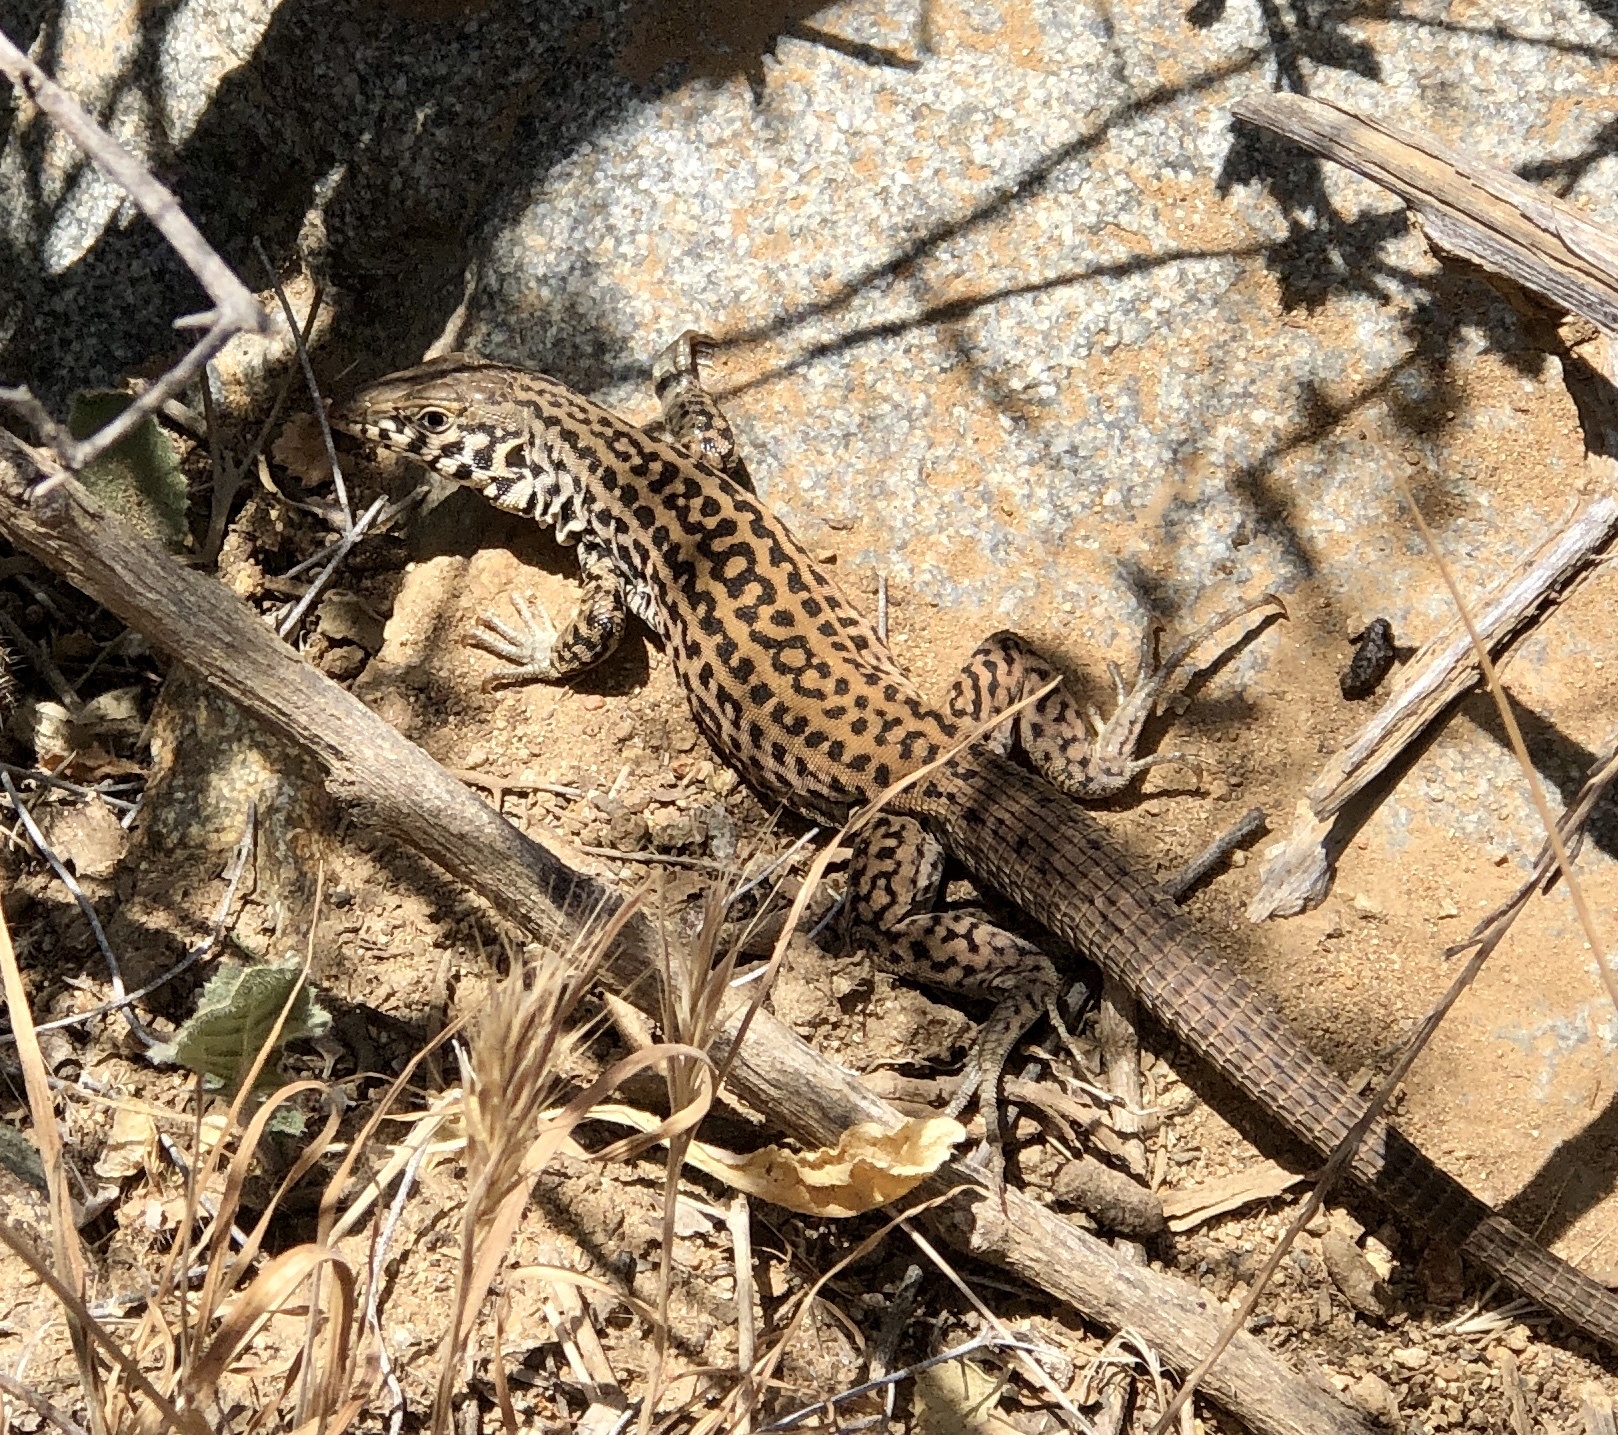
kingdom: Animalia
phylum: Chordata
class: Squamata
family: Teiidae
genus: Aspidoscelis
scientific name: Aspidoscelis tigris
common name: Tiger whiptail
